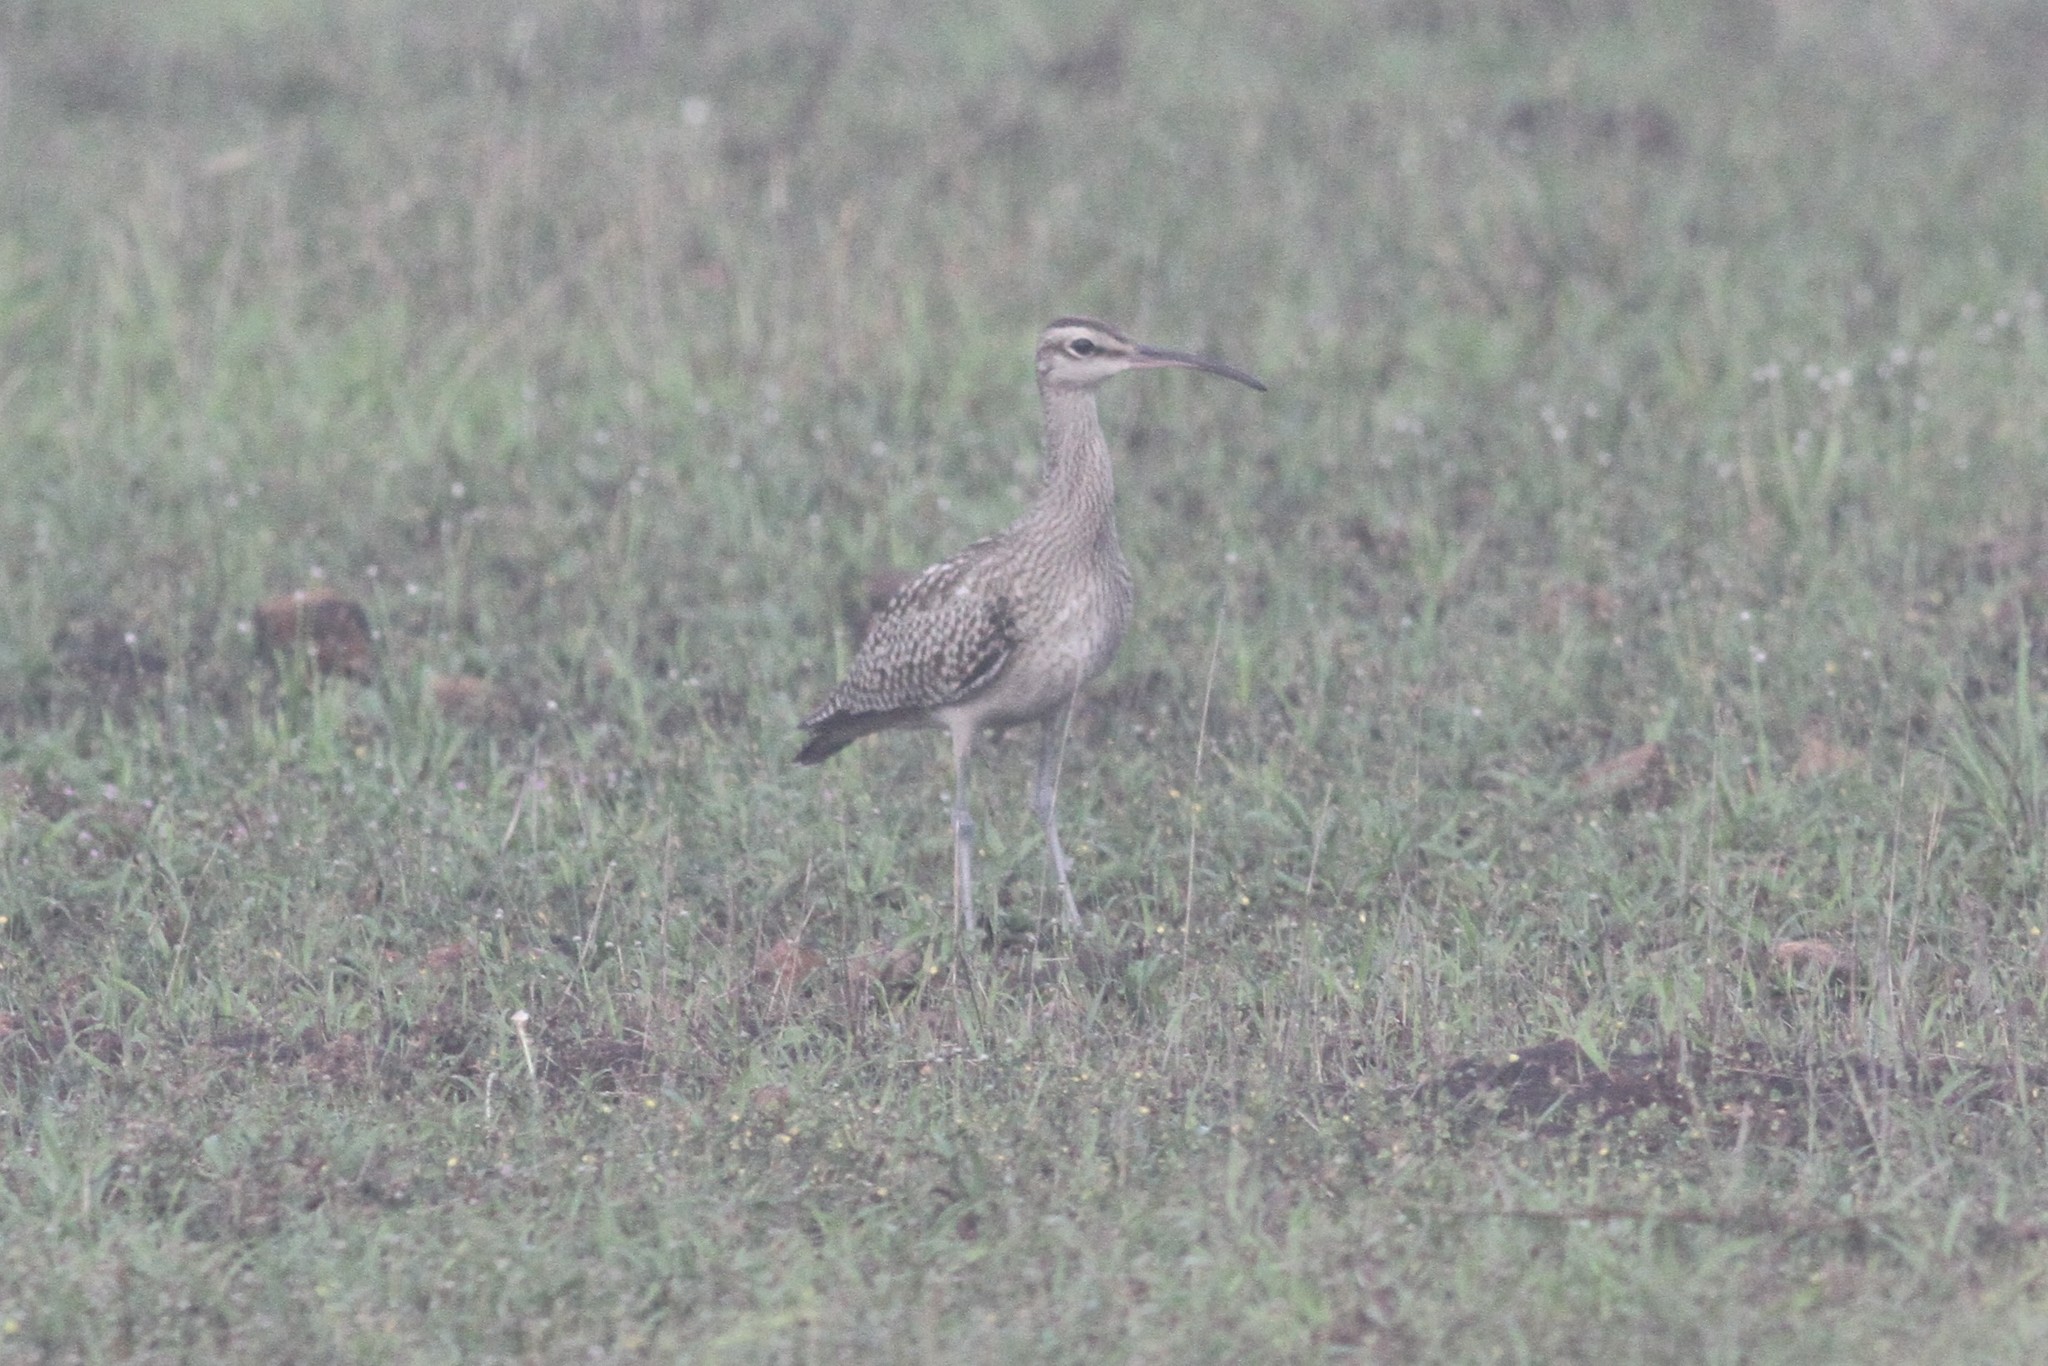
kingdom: Animalia
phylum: Chordata
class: Aves
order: Charadriiformes
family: Scolopacidae
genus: Numenius
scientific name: Numenius phaeopus
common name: Whimbrel
